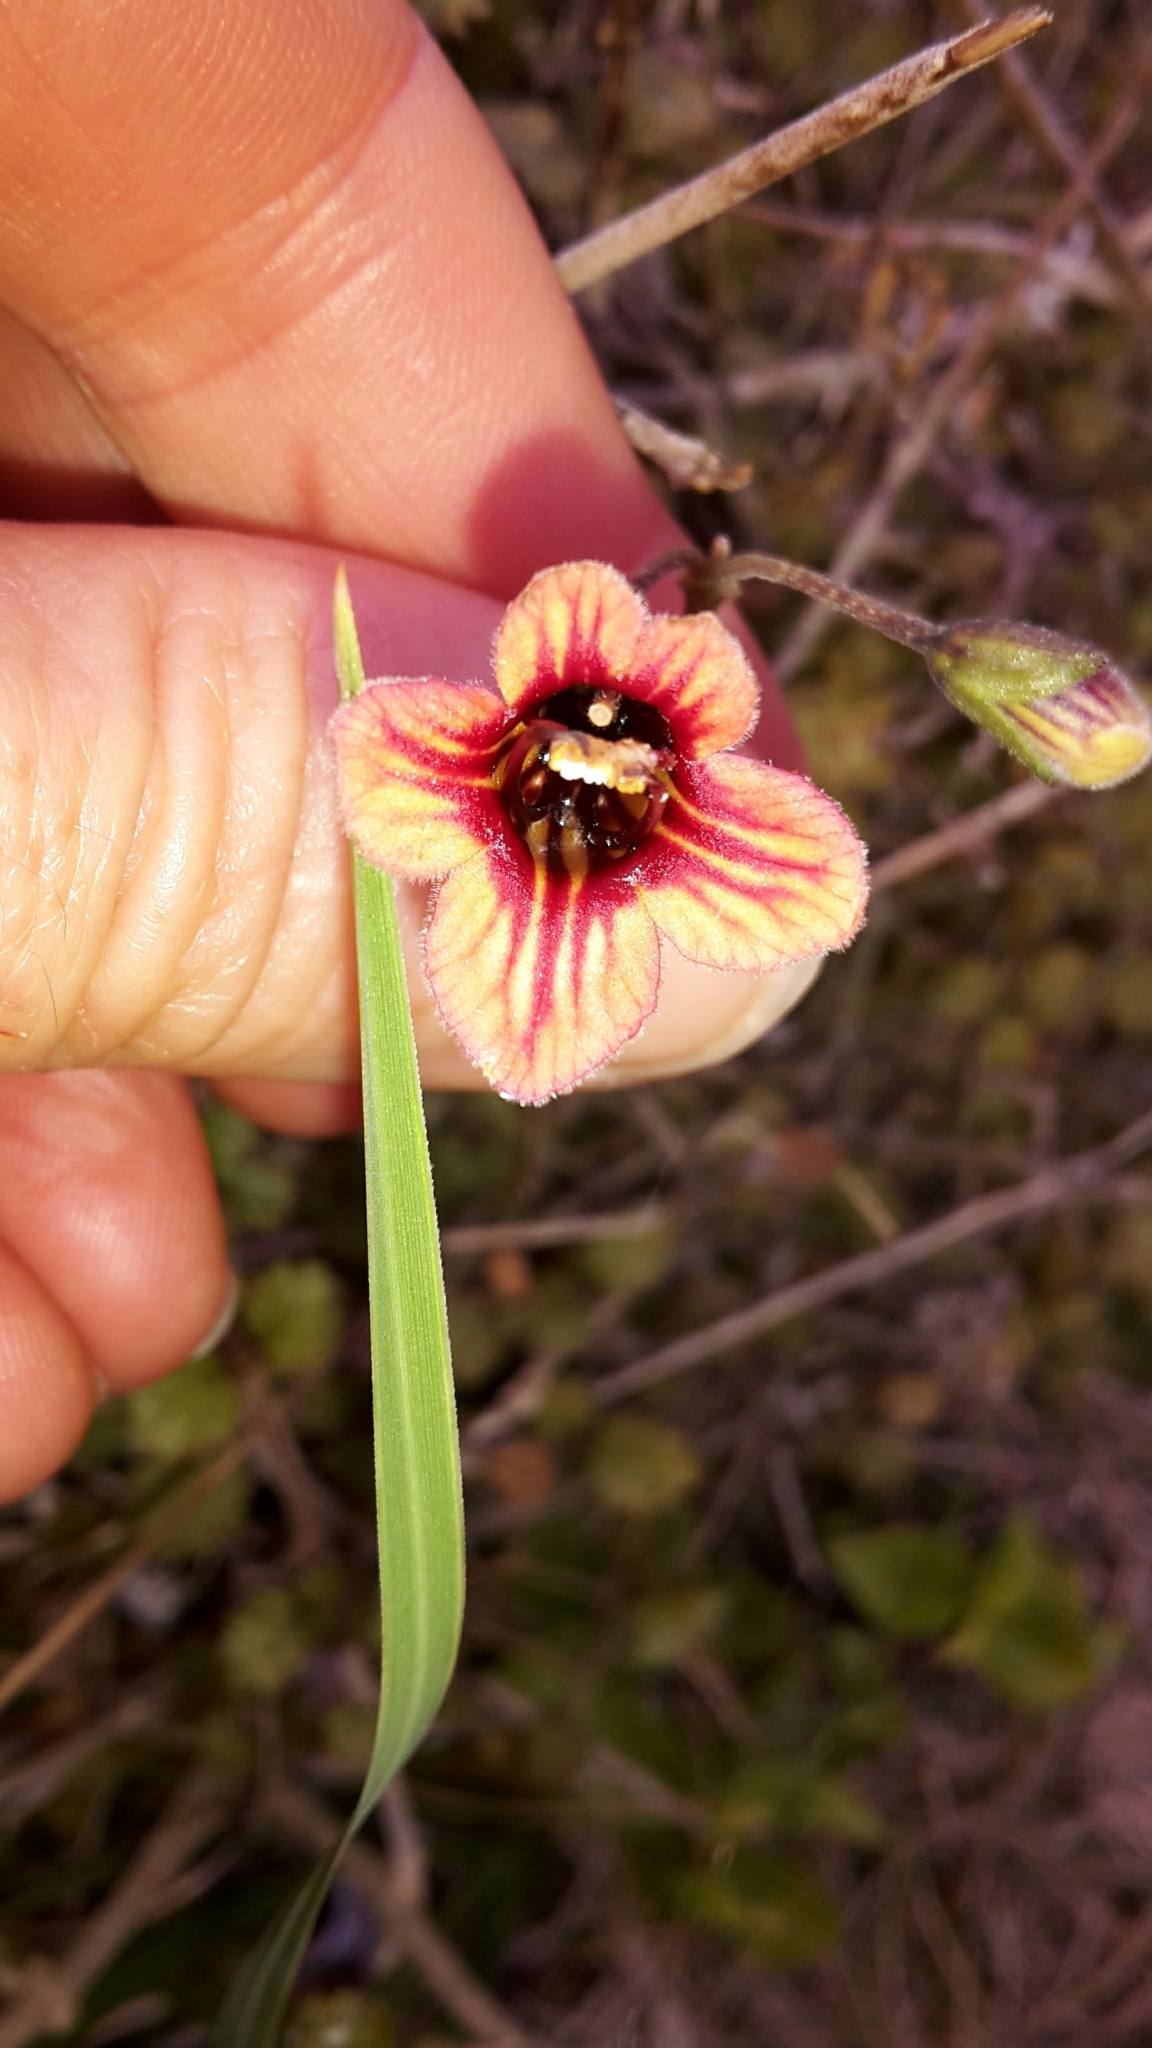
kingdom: Plantae
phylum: Tracheophyta
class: Magnoliopsida
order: Lamiales
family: Gesneriaceae
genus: Rhabdothamnus
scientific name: Rhabdothamnus solandri
